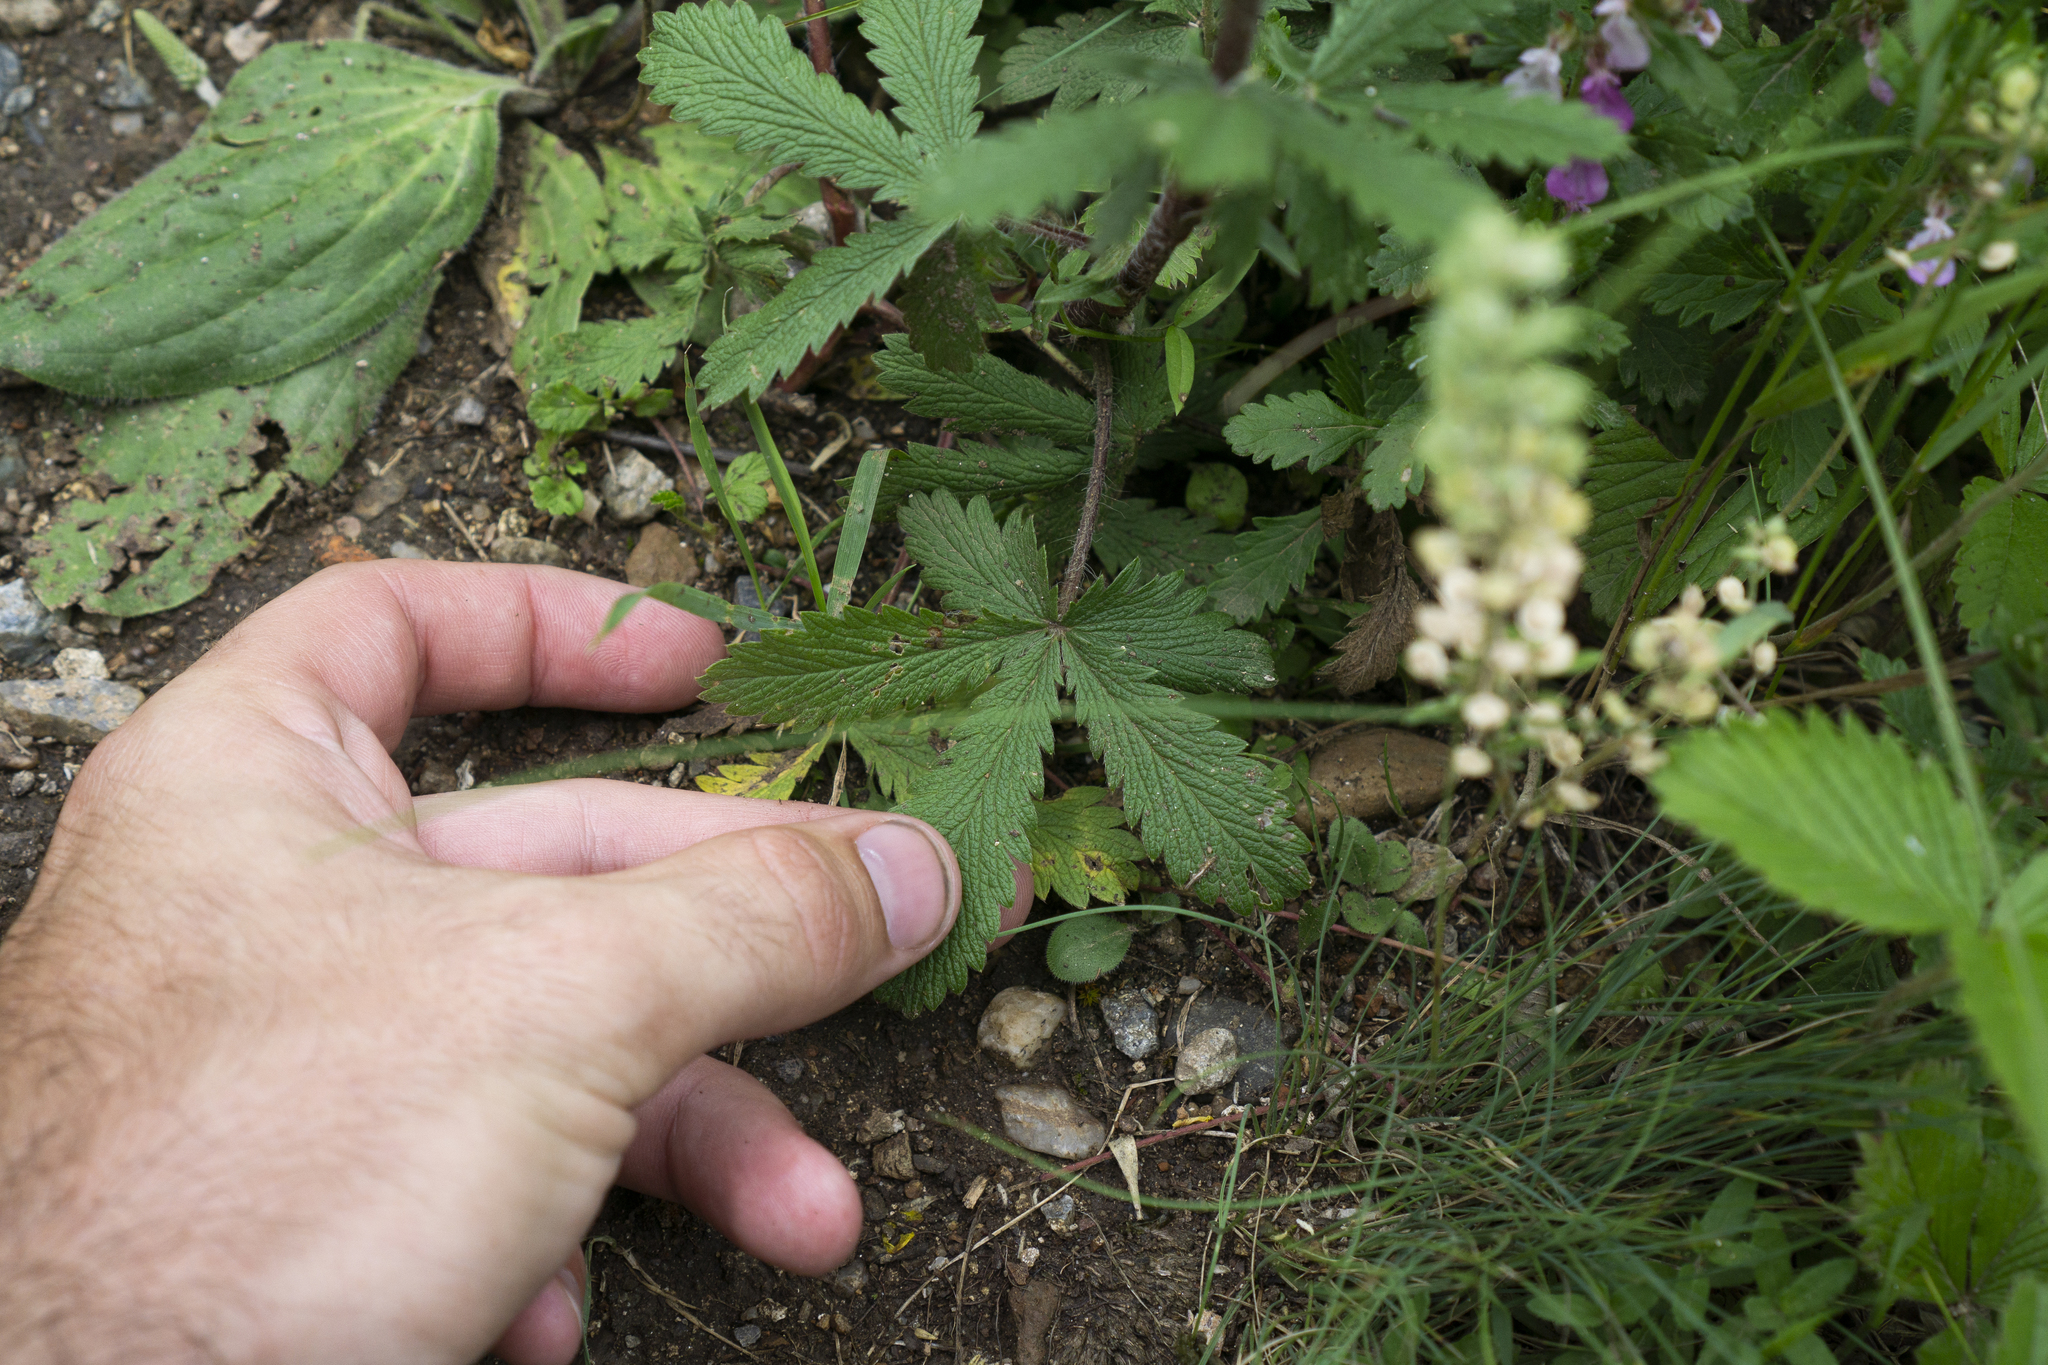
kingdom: Plantae
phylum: Tracheophyta
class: Magnoliopsida
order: Rosales
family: Rosaceae
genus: Potentilla
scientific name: Potentilla recta
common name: Sulphur cinquefoil
